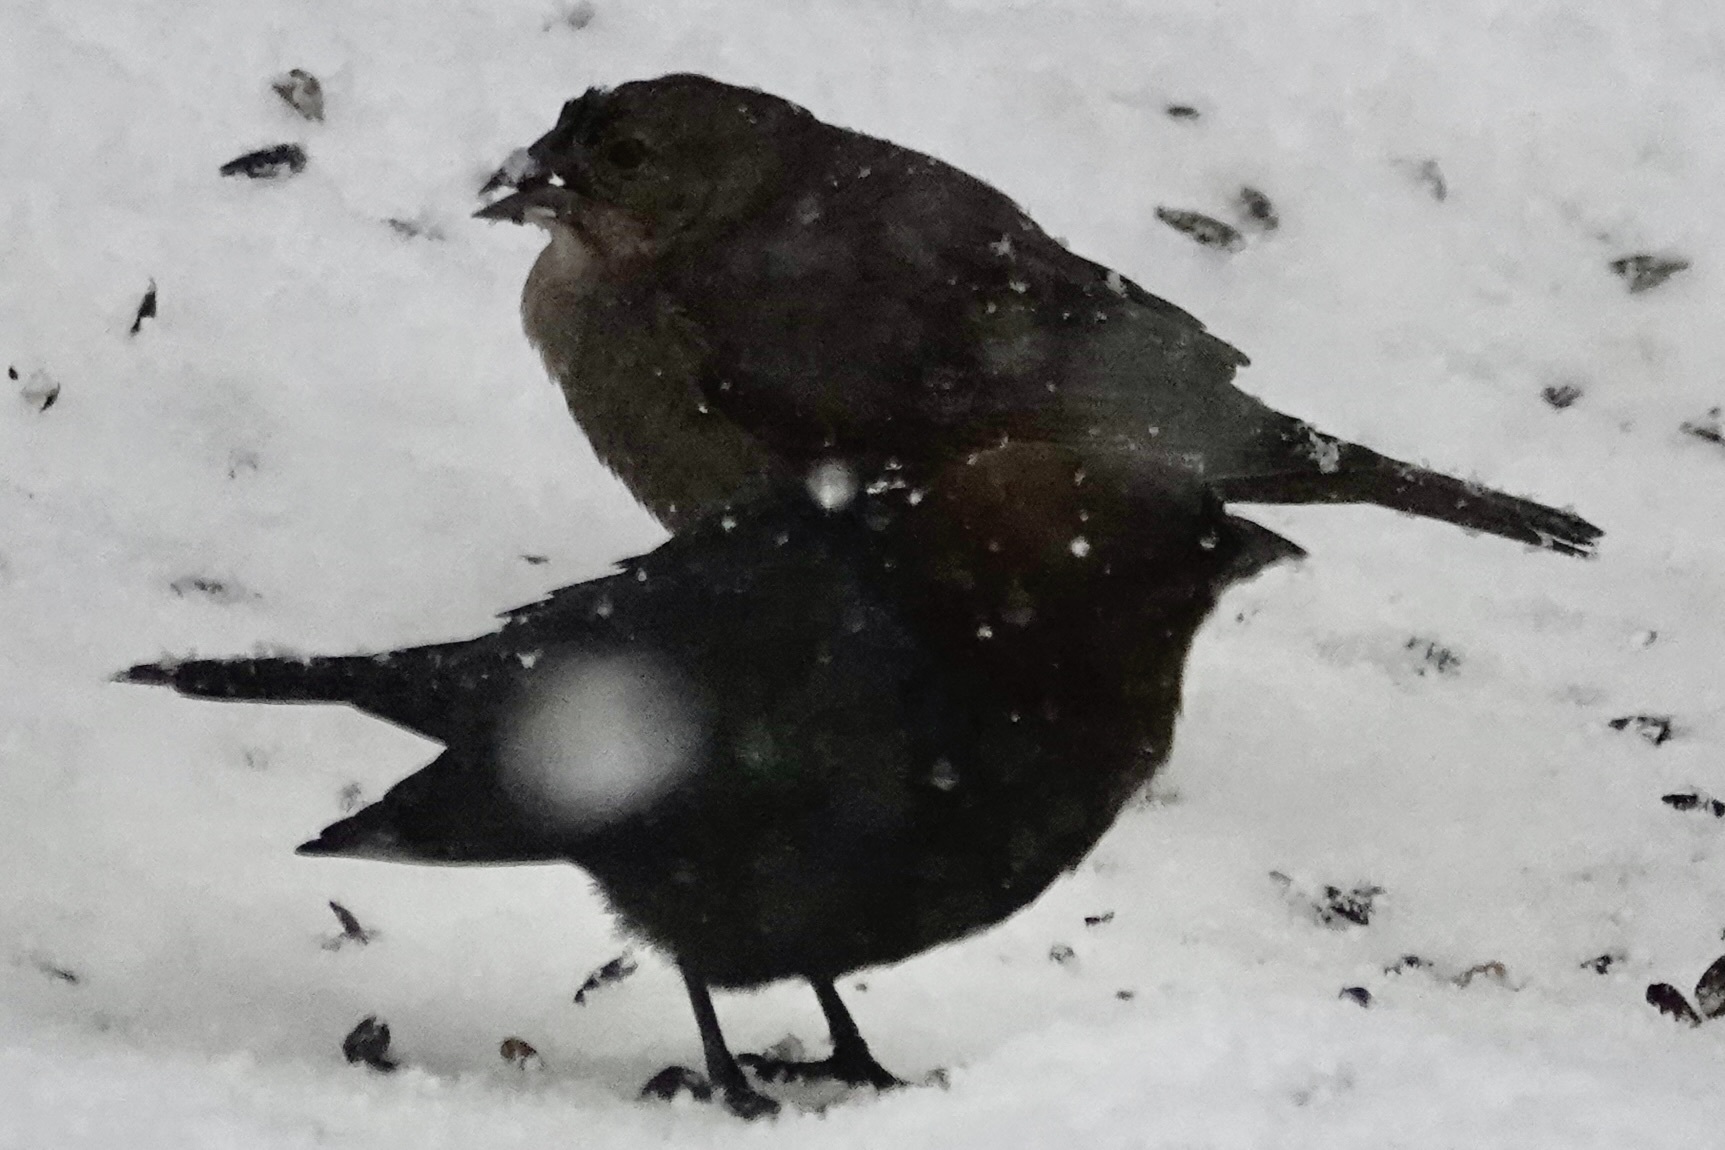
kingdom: Animalia
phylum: Chordata
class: Aves
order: Passeriformes
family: Icteridae
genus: Molothrus
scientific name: Molothrus ater
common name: Brown-headed cowbird
